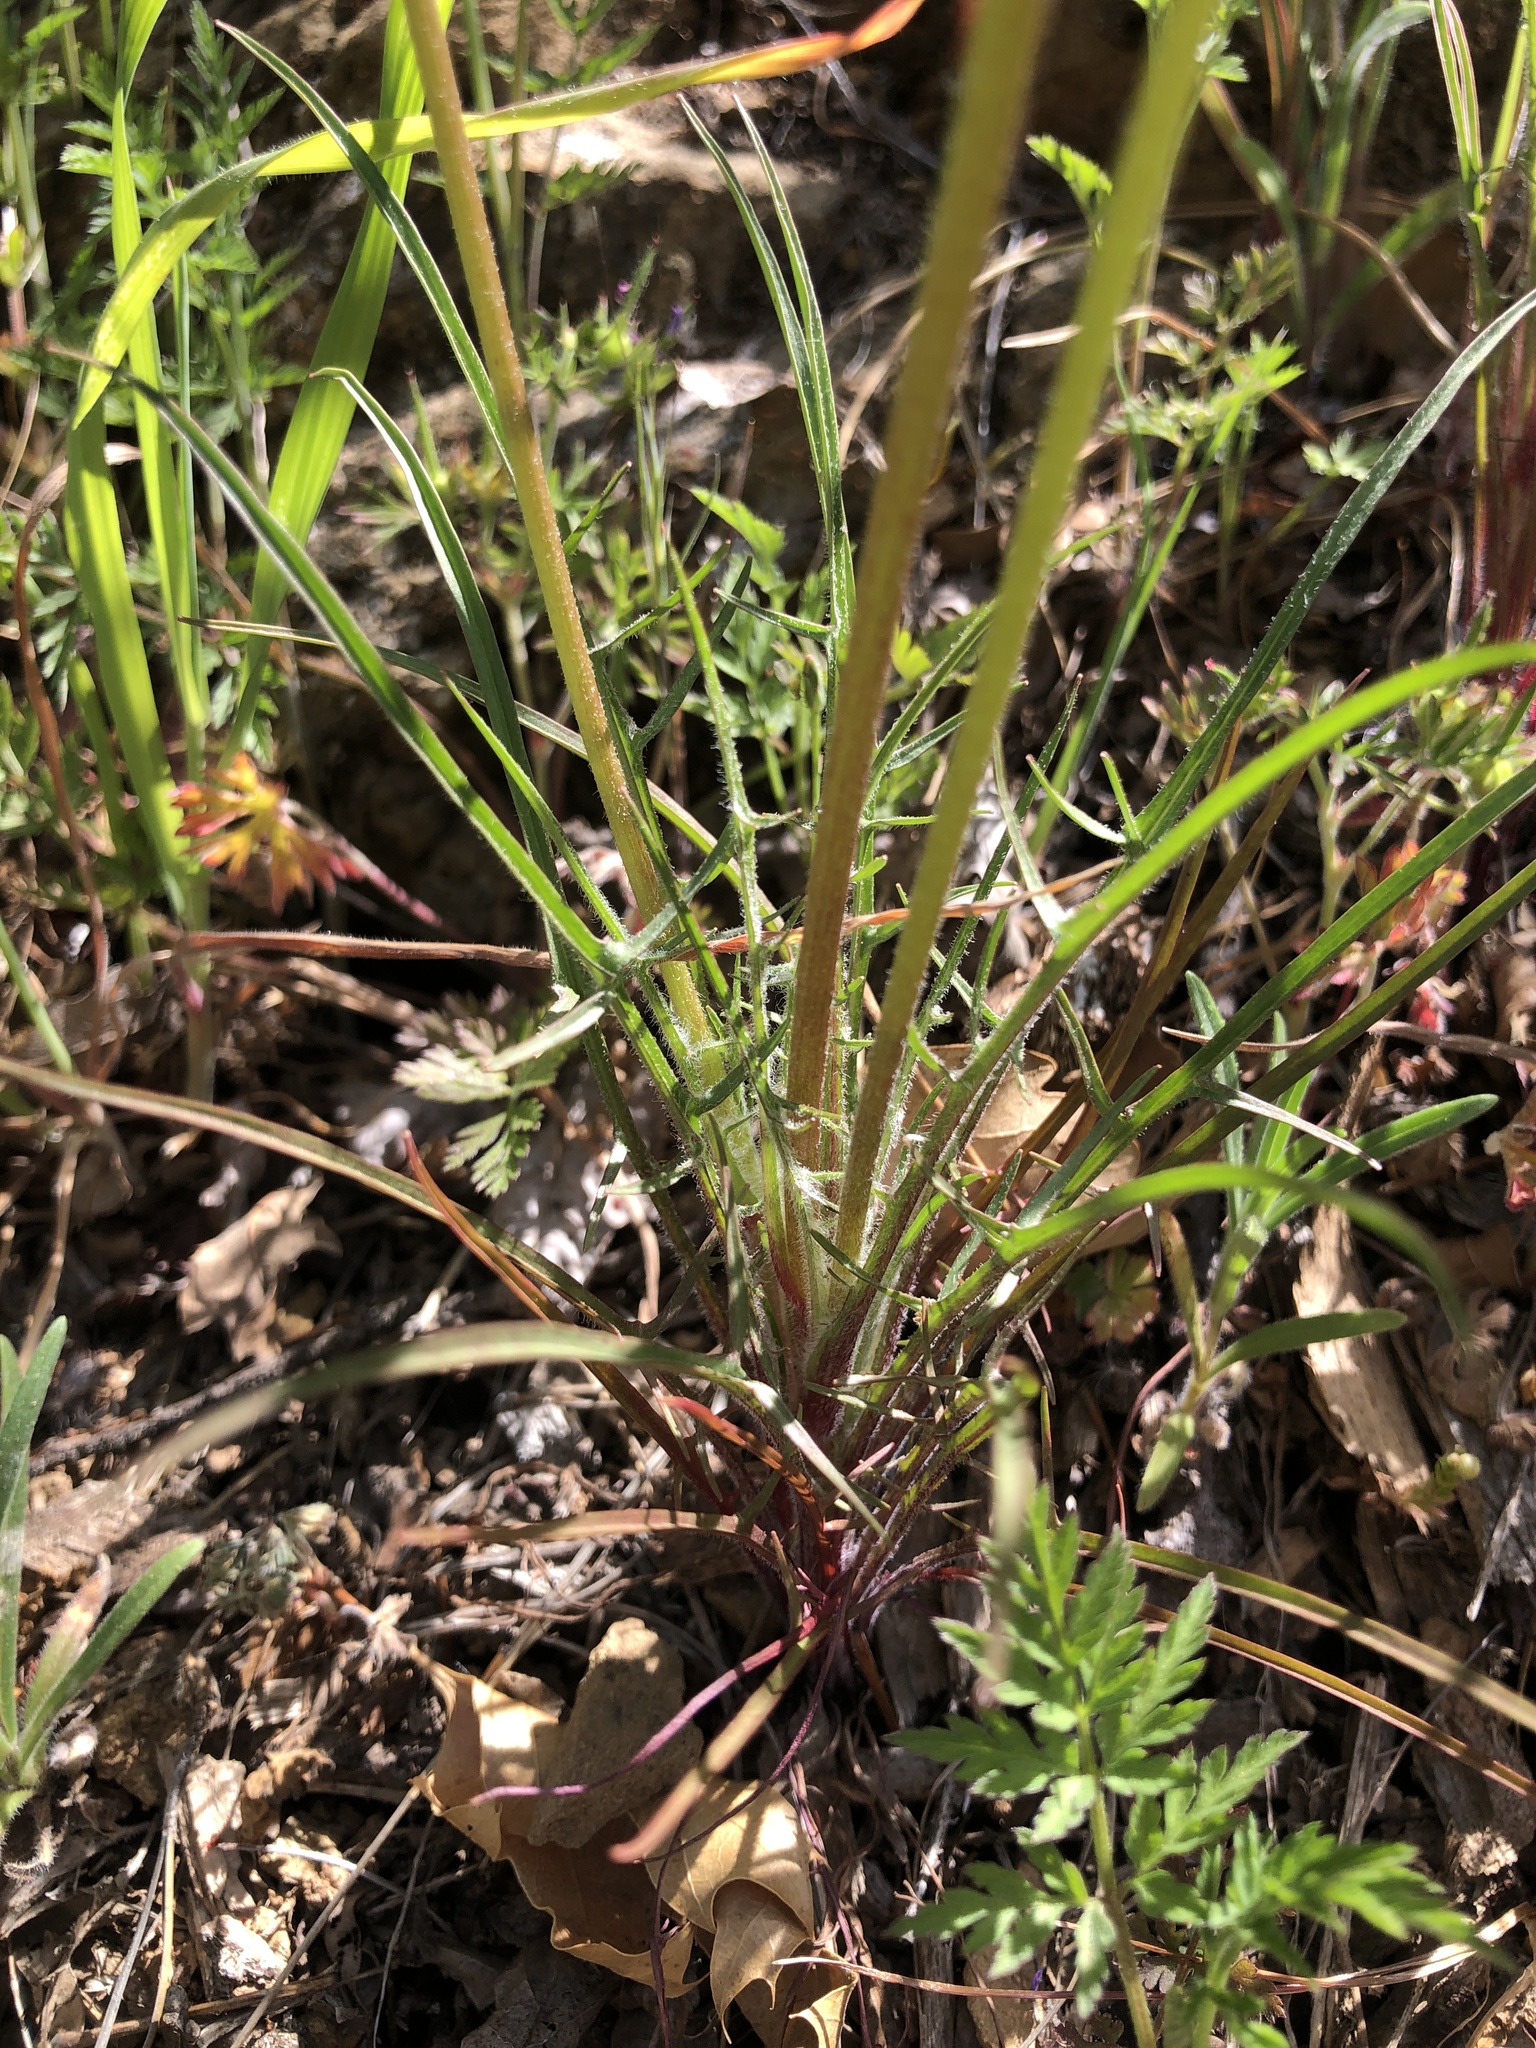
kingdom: Plantae
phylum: Tracheophyta
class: Magnoliopsida
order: Asterales
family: Asteraceae
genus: Microseris
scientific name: Microseris lindleyi
